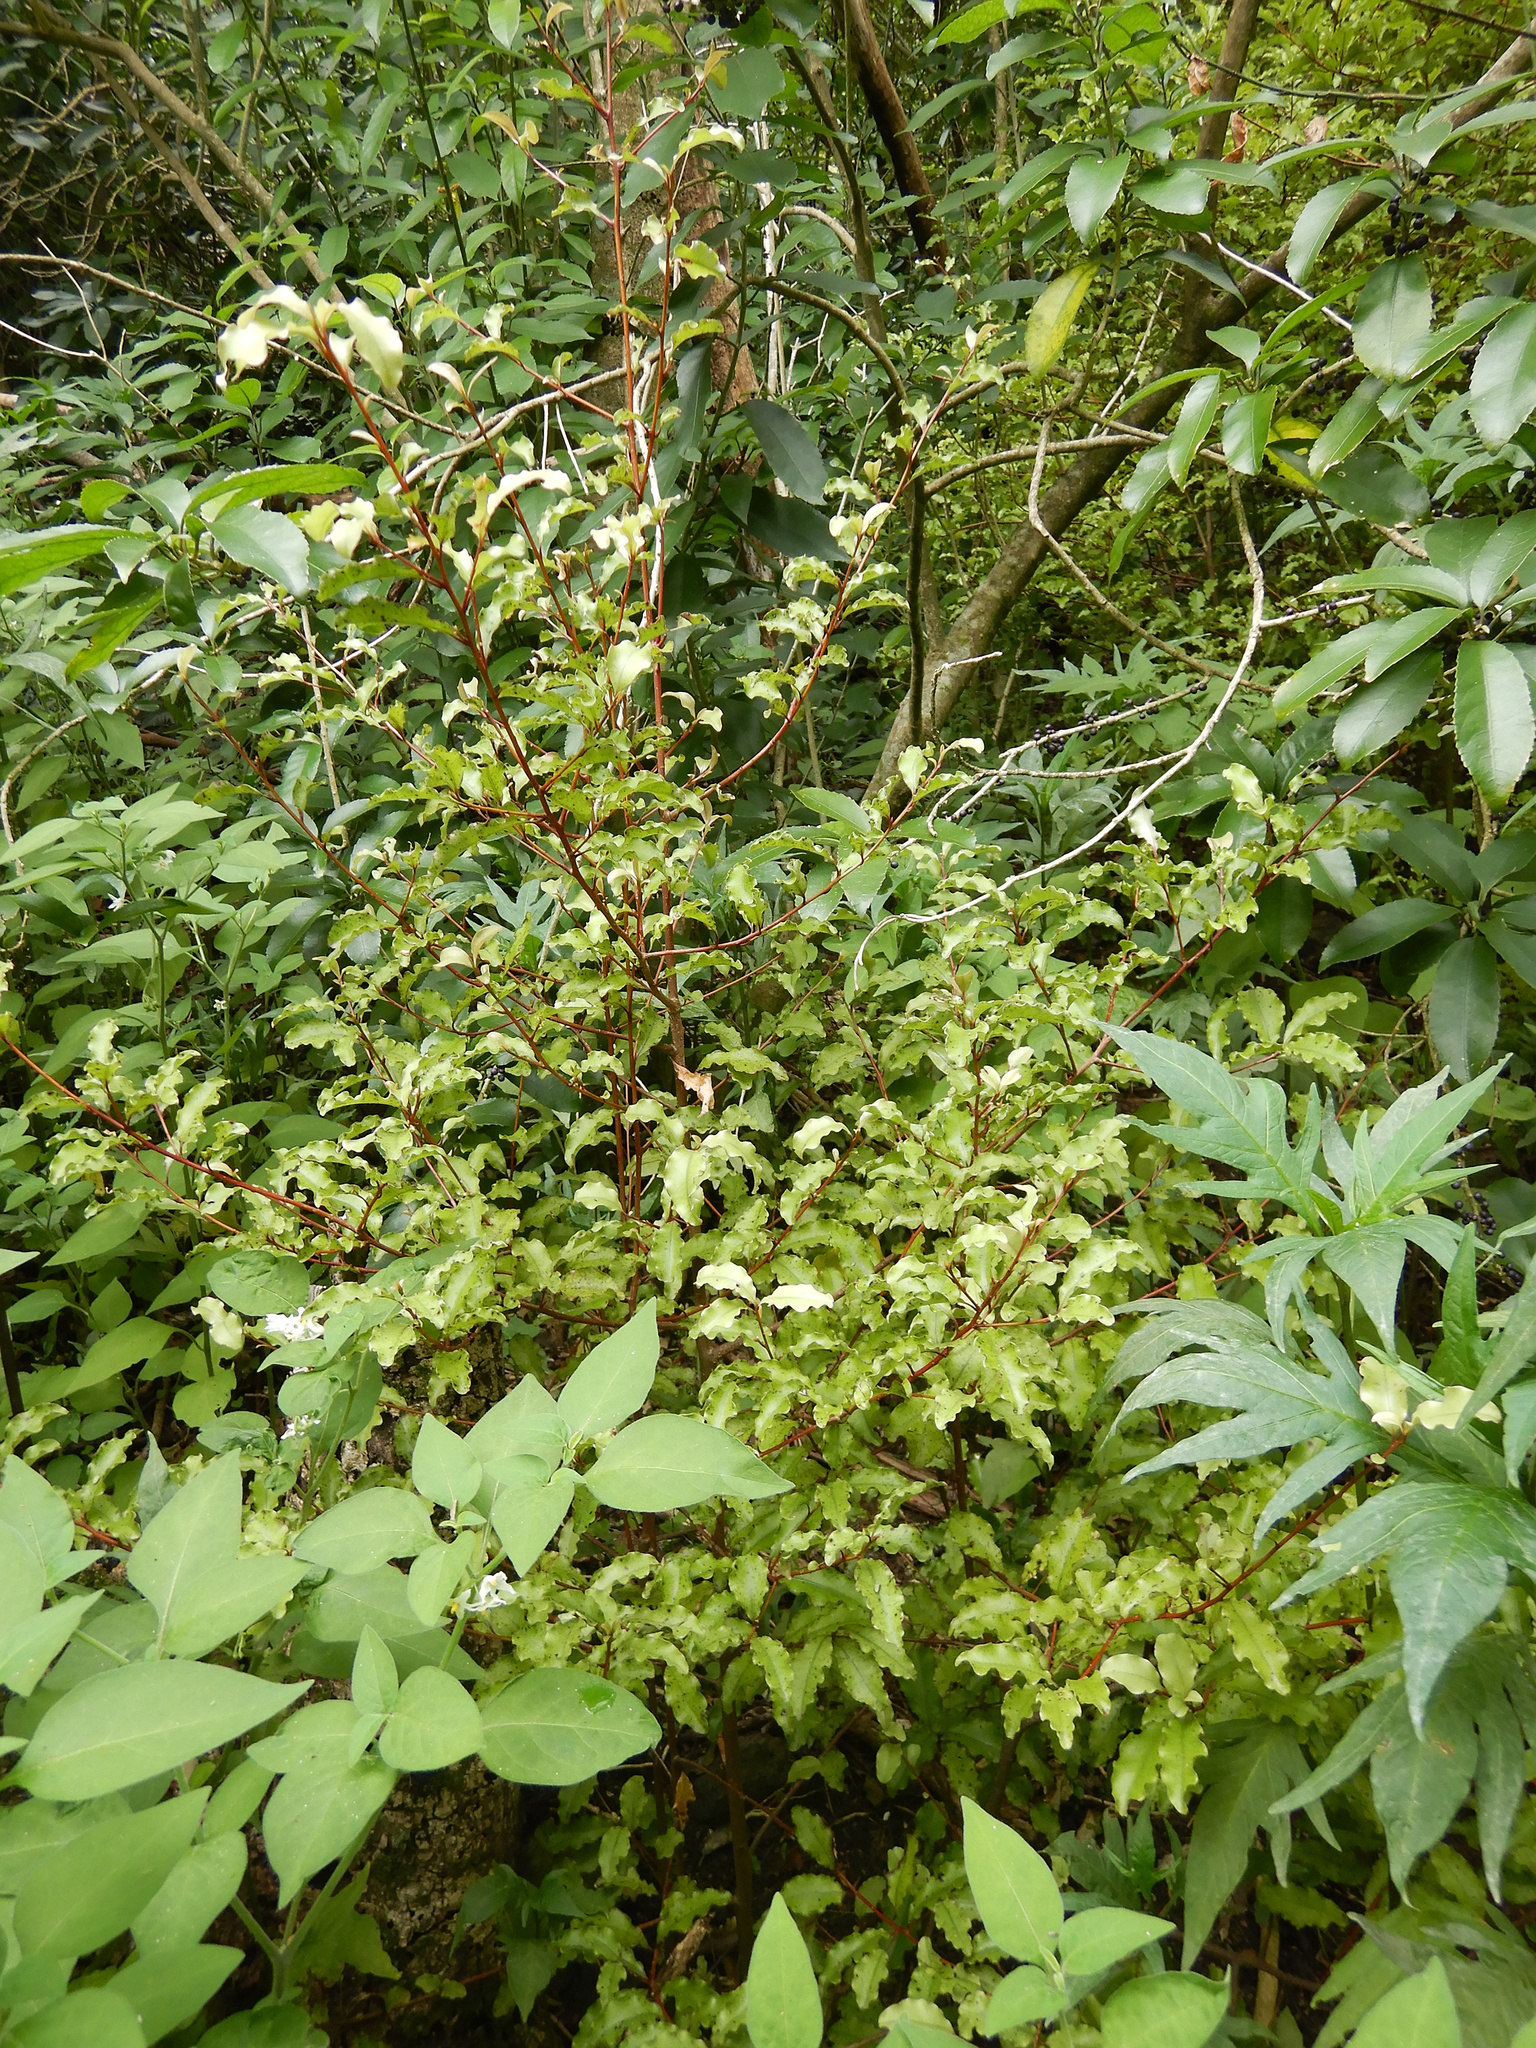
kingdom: Plantae
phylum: Tracheophyta
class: Magnoliopsida
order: Ericales
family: Primulaceae
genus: Myrsine
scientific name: Myrsine australis
